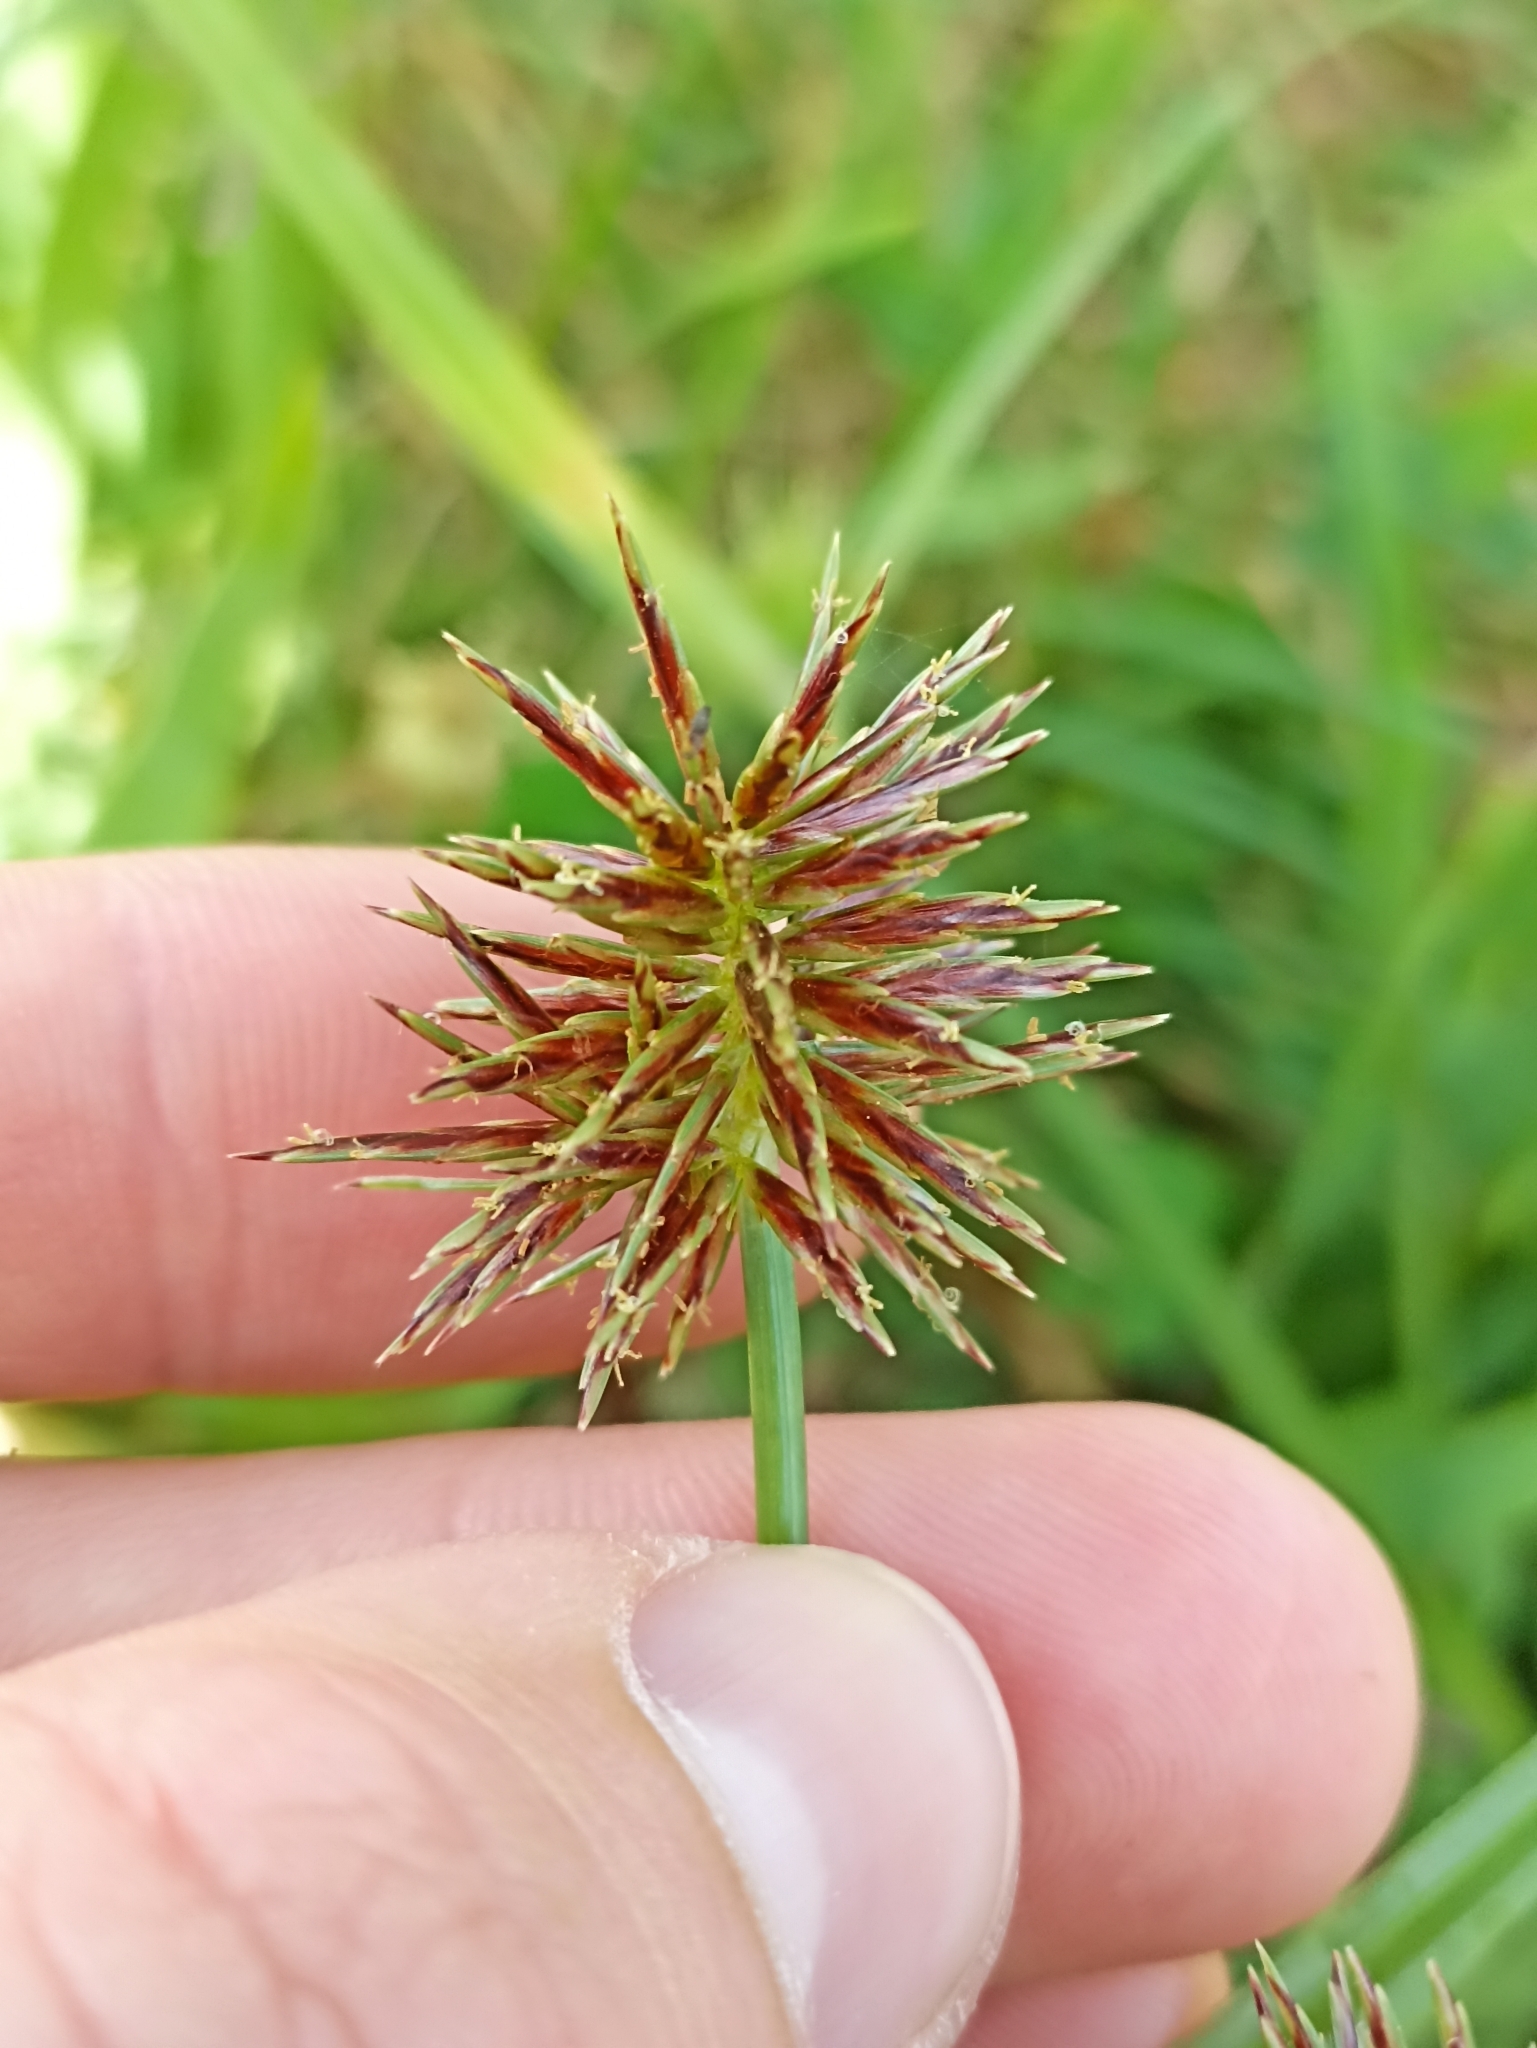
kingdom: Plantae
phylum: Tracheophyta
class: Liliopsida
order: Poales
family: Cyperaceae
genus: Cyperus
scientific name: Cyperus congestus
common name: Dense flat sedge
